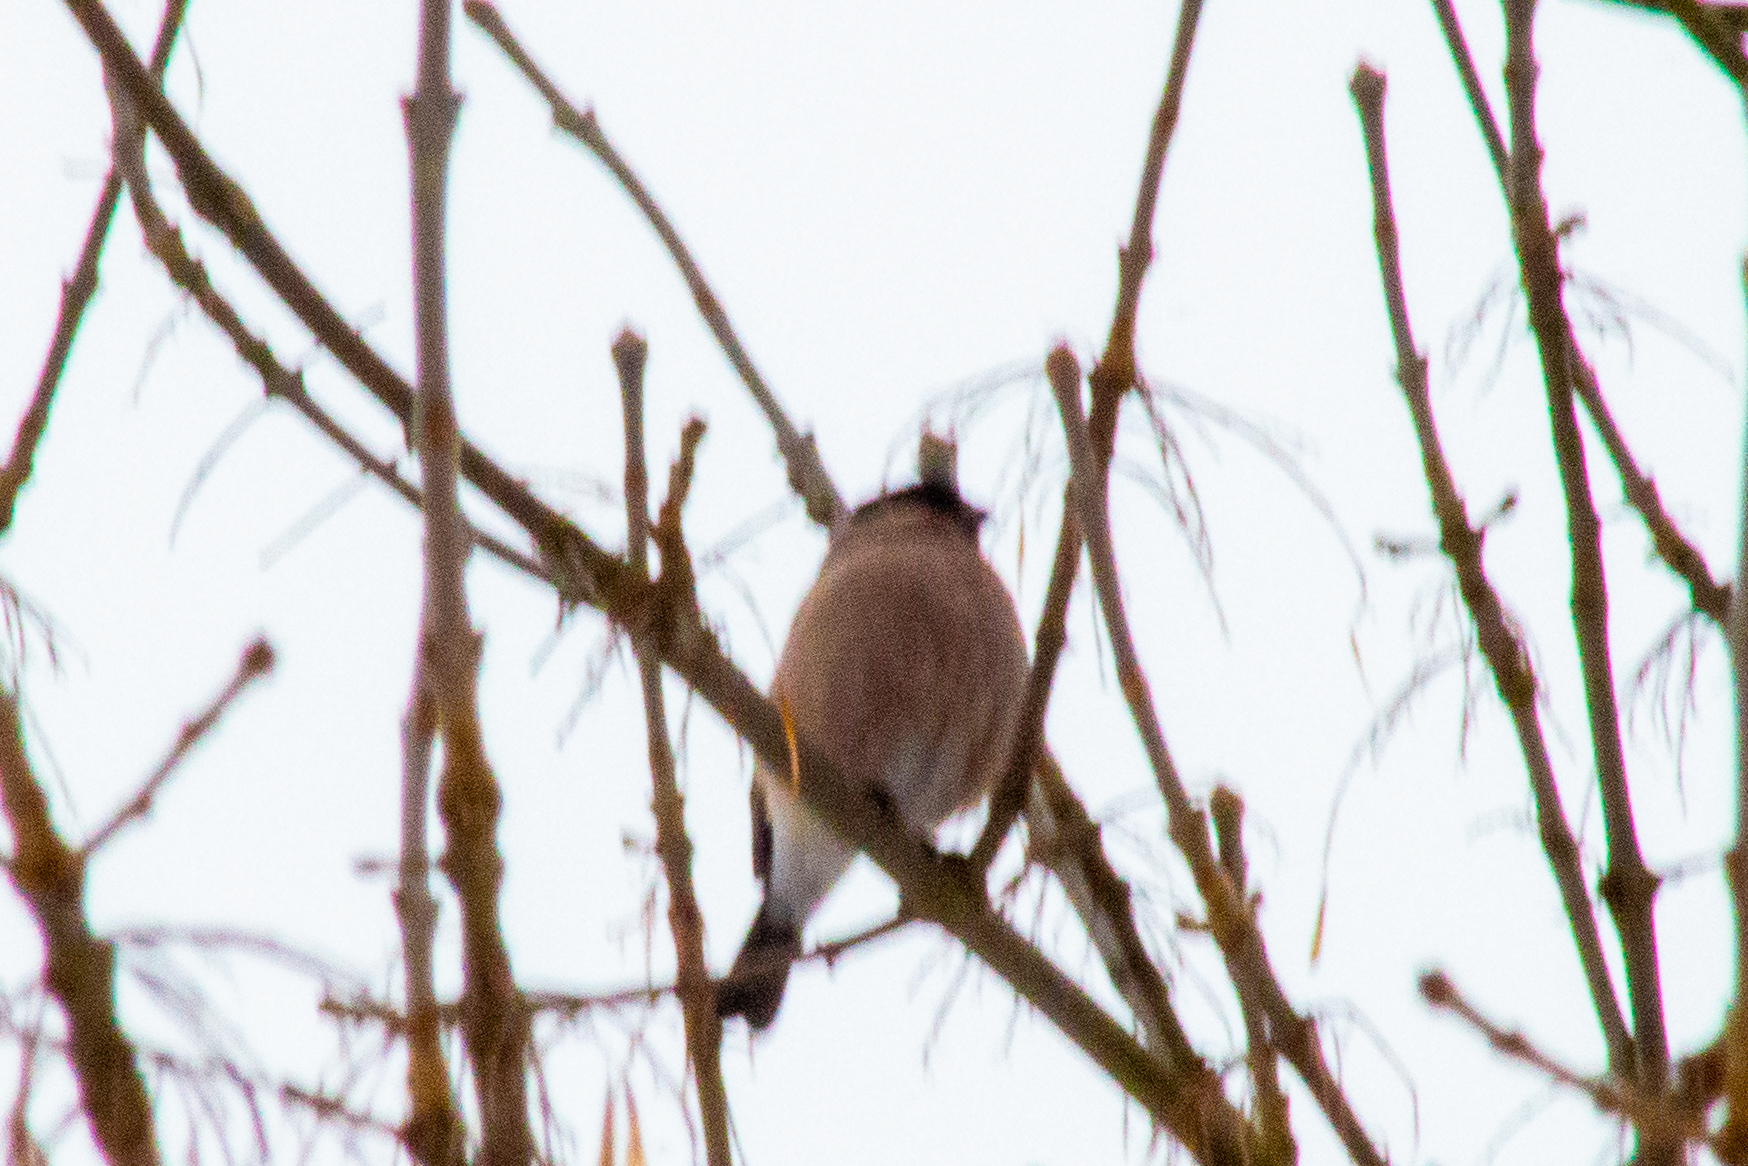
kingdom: Animalia
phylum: Chordata
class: Aves
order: Passeriformes
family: Fringillidae
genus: Pyrrhula
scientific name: Pyrrhula pyrrhula
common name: Eurasian bullfinch
